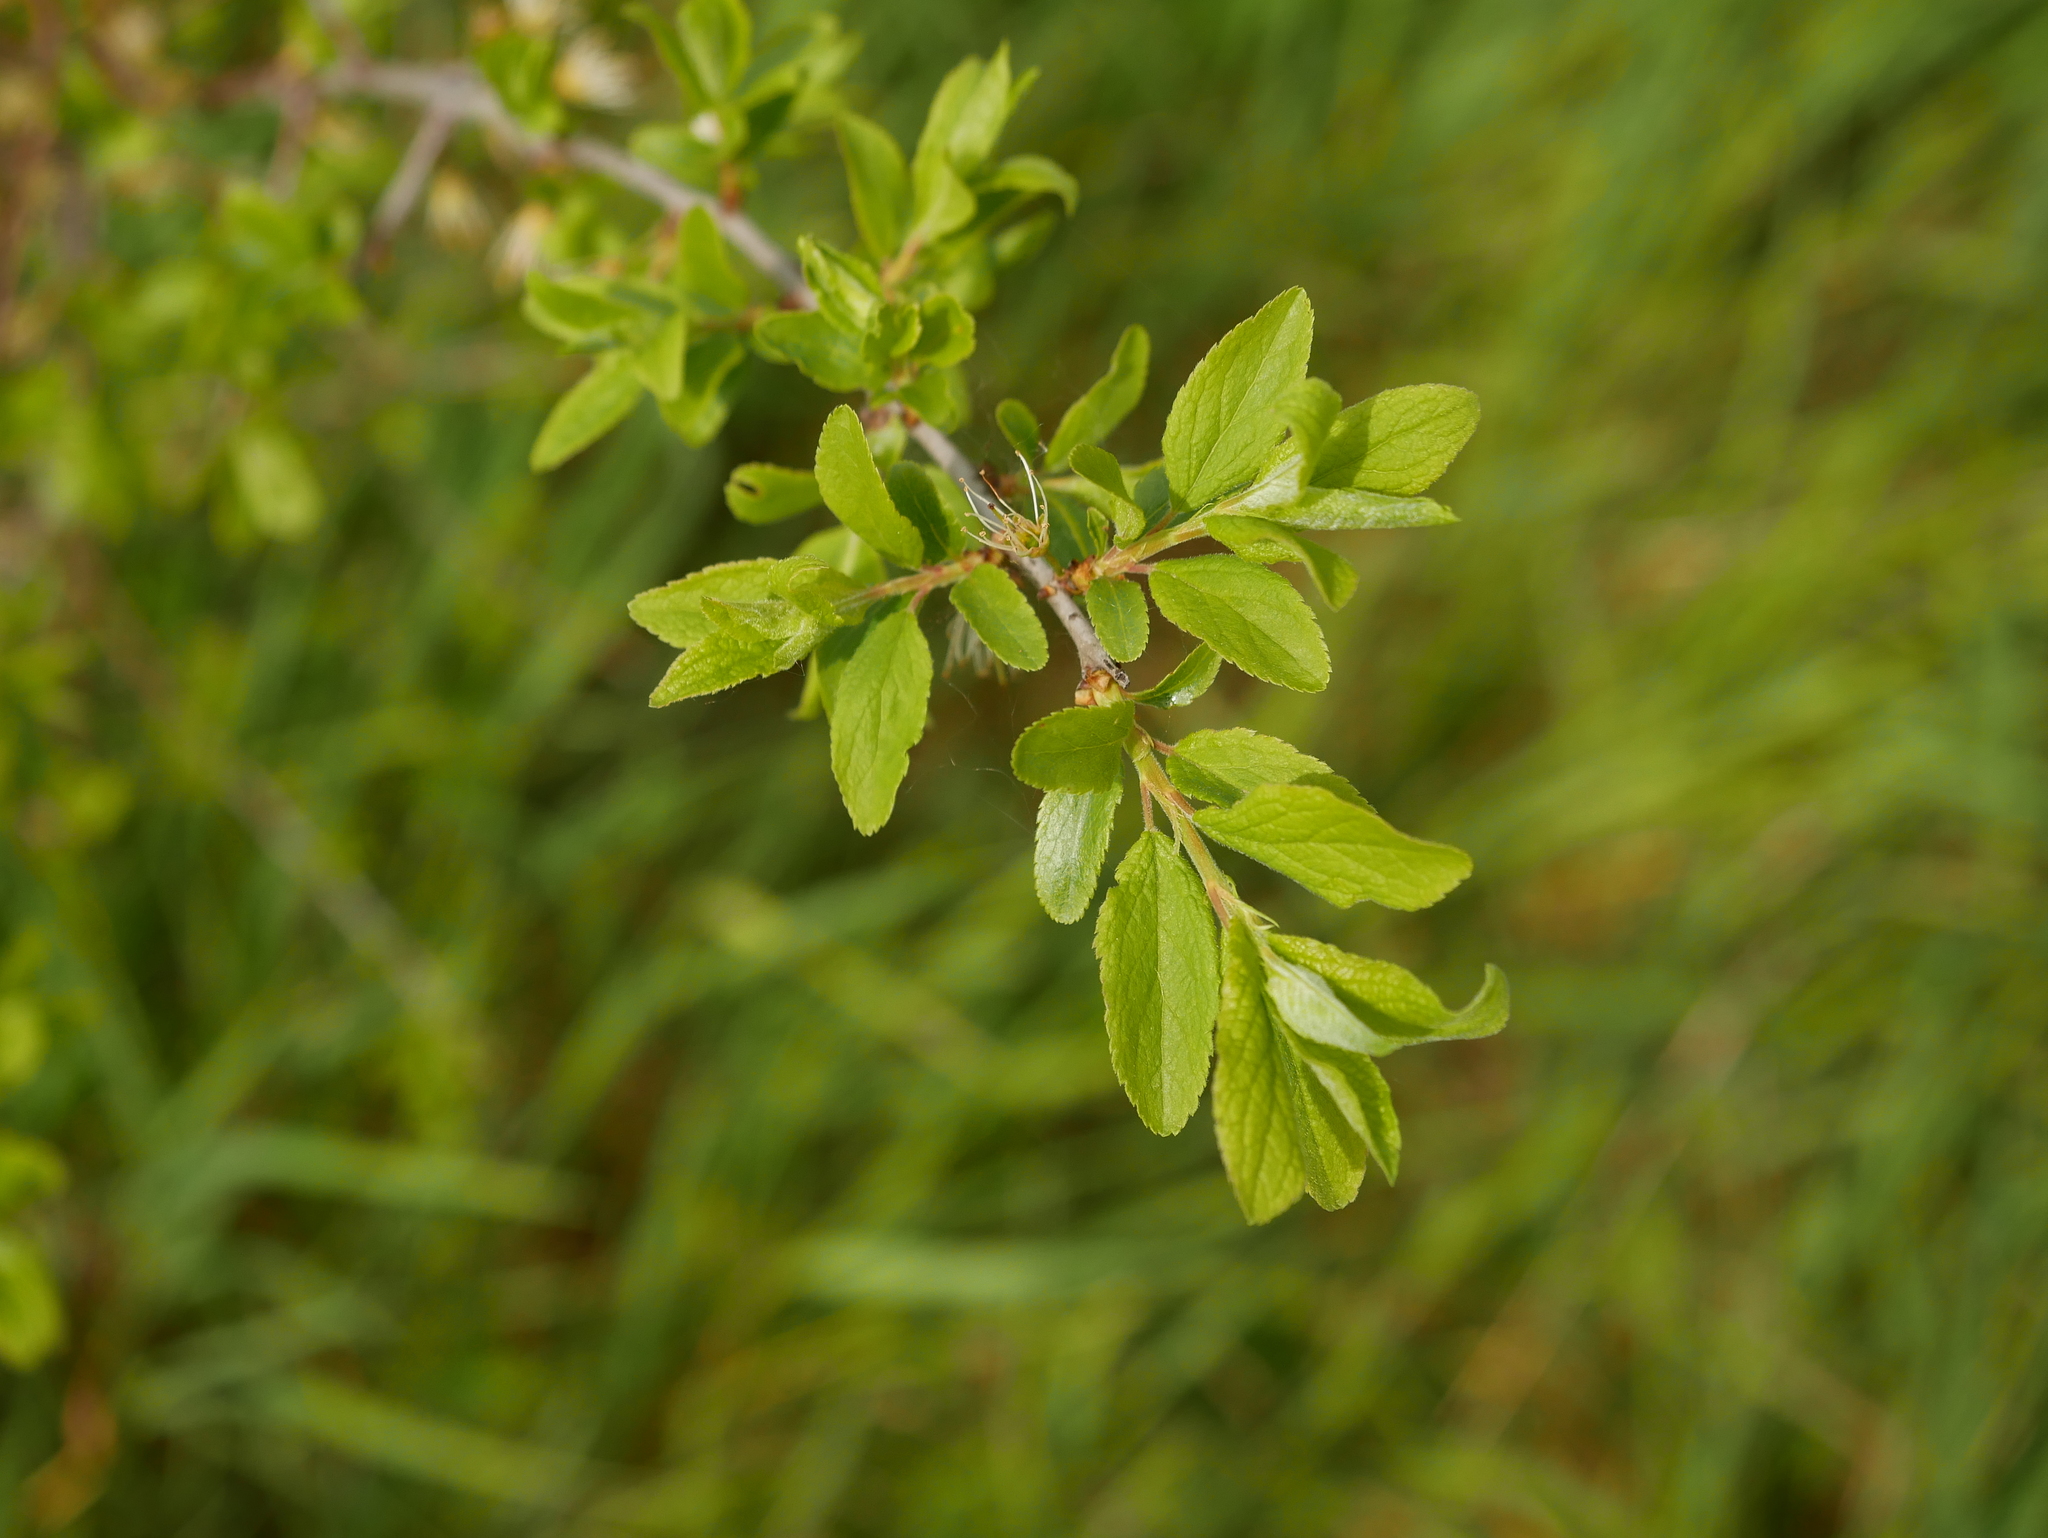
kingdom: Plantae
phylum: Tracheophyta
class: Magnoliopsida
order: Rosales
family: Rosaceae
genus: Prunus
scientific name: Prunus spinosa
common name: Blackthorn
